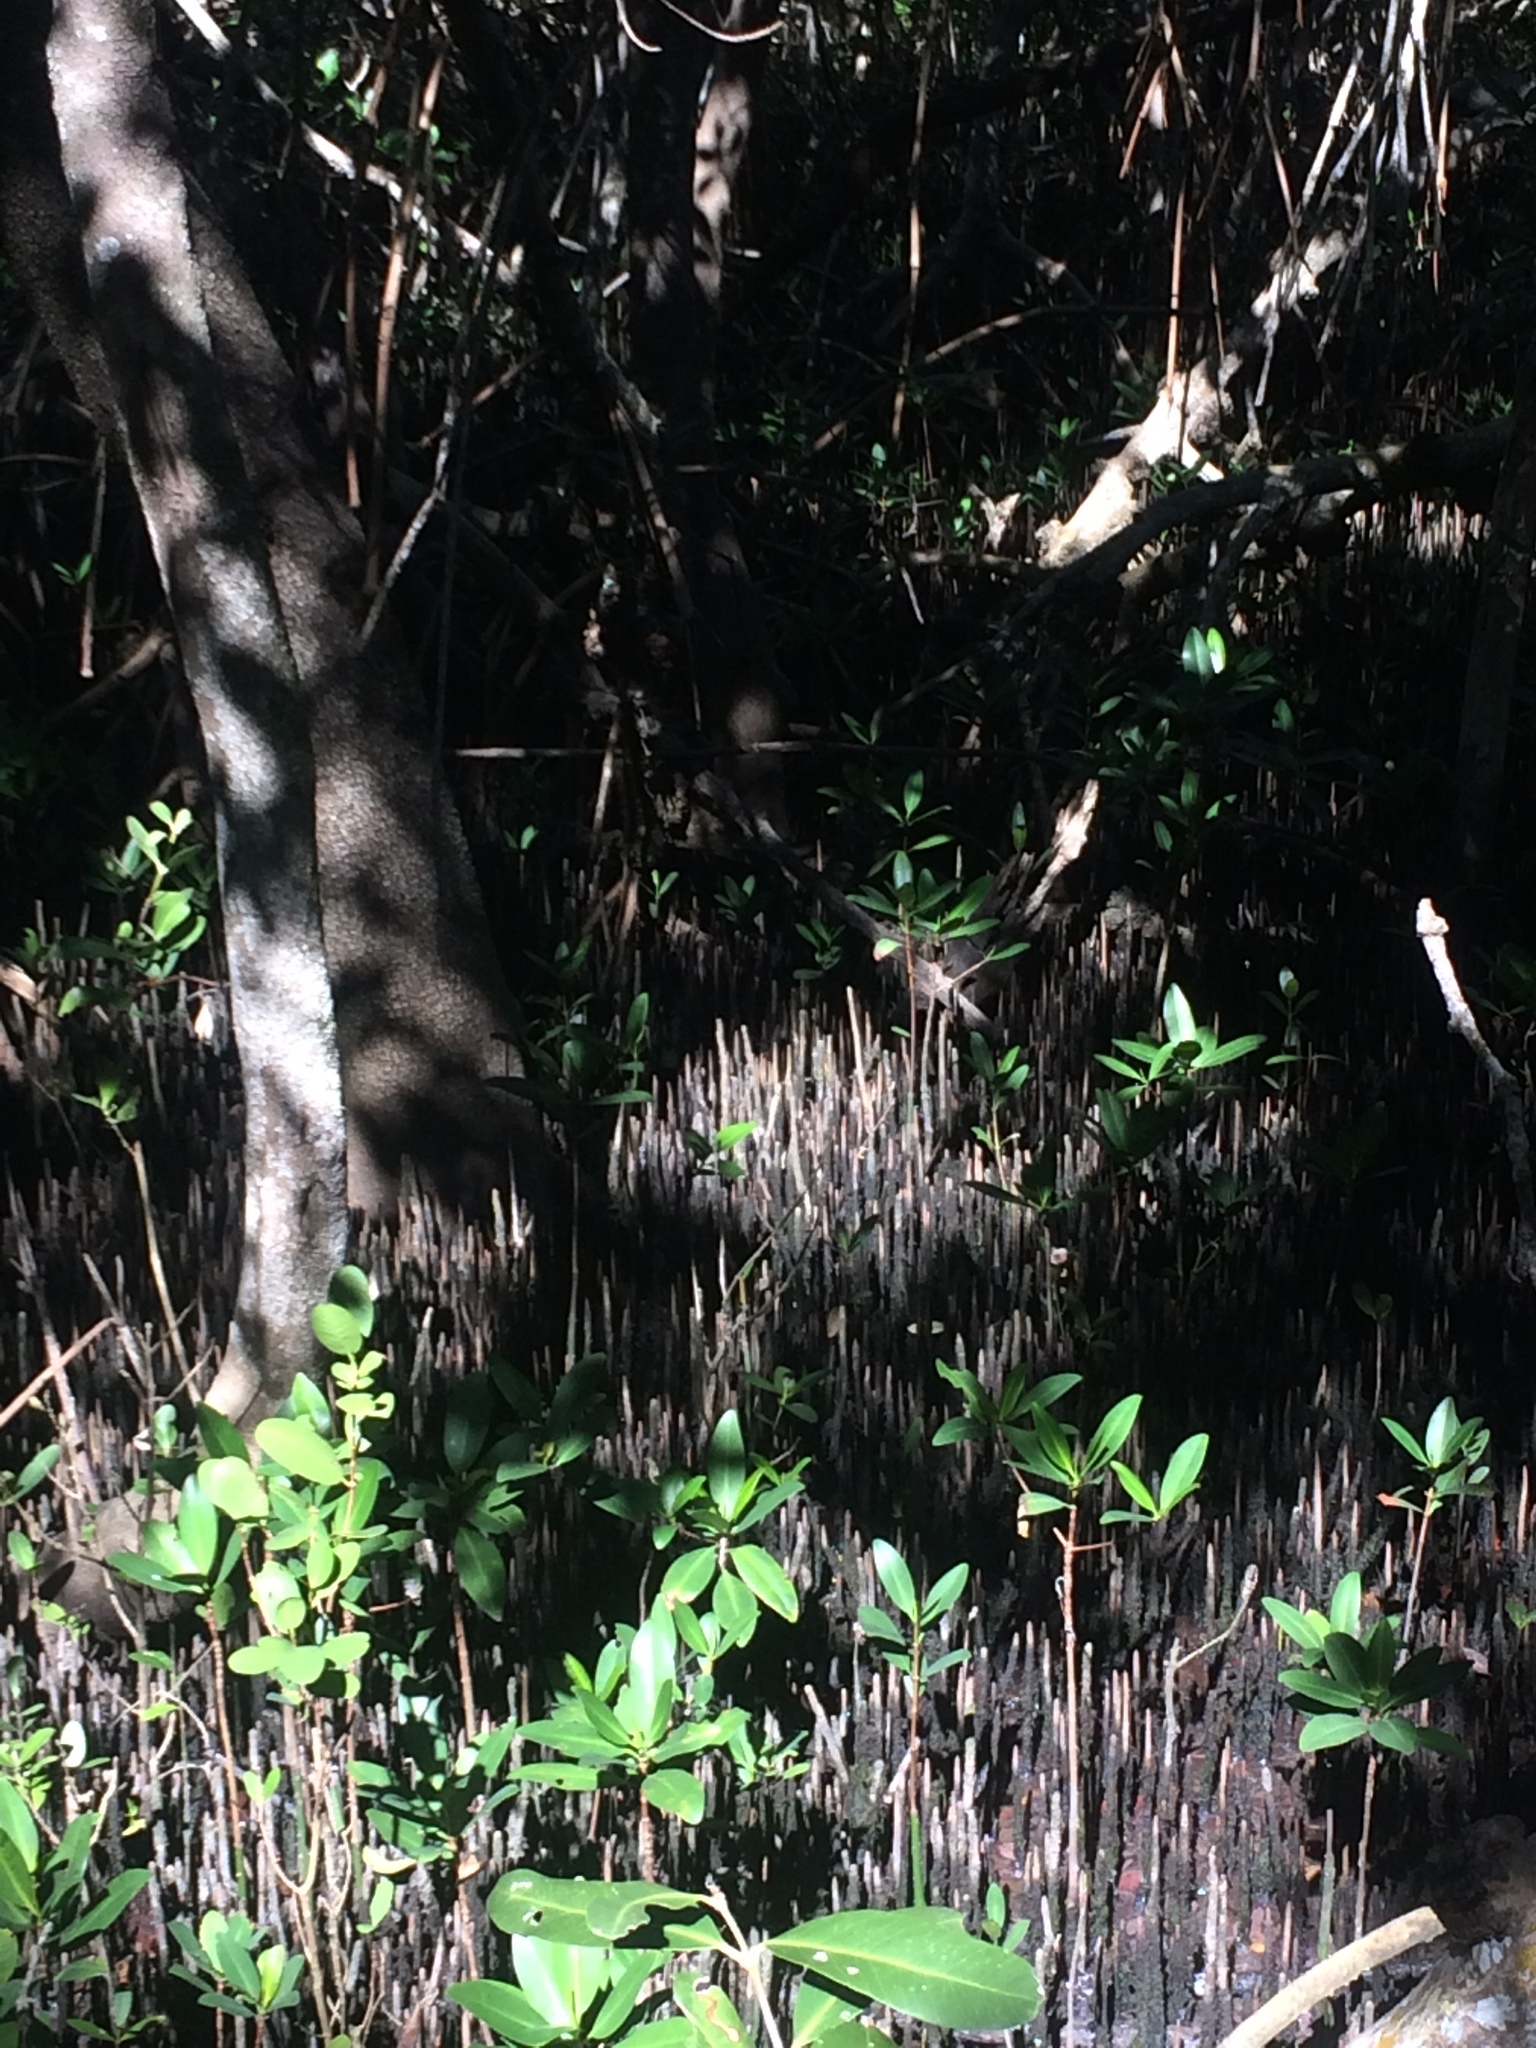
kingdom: Plantae
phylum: Tracheophyta
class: Magnoliopsida
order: Lamiales
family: Acanthaceae
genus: Avicennia
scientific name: Avicennia germinans
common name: Black mangrove
